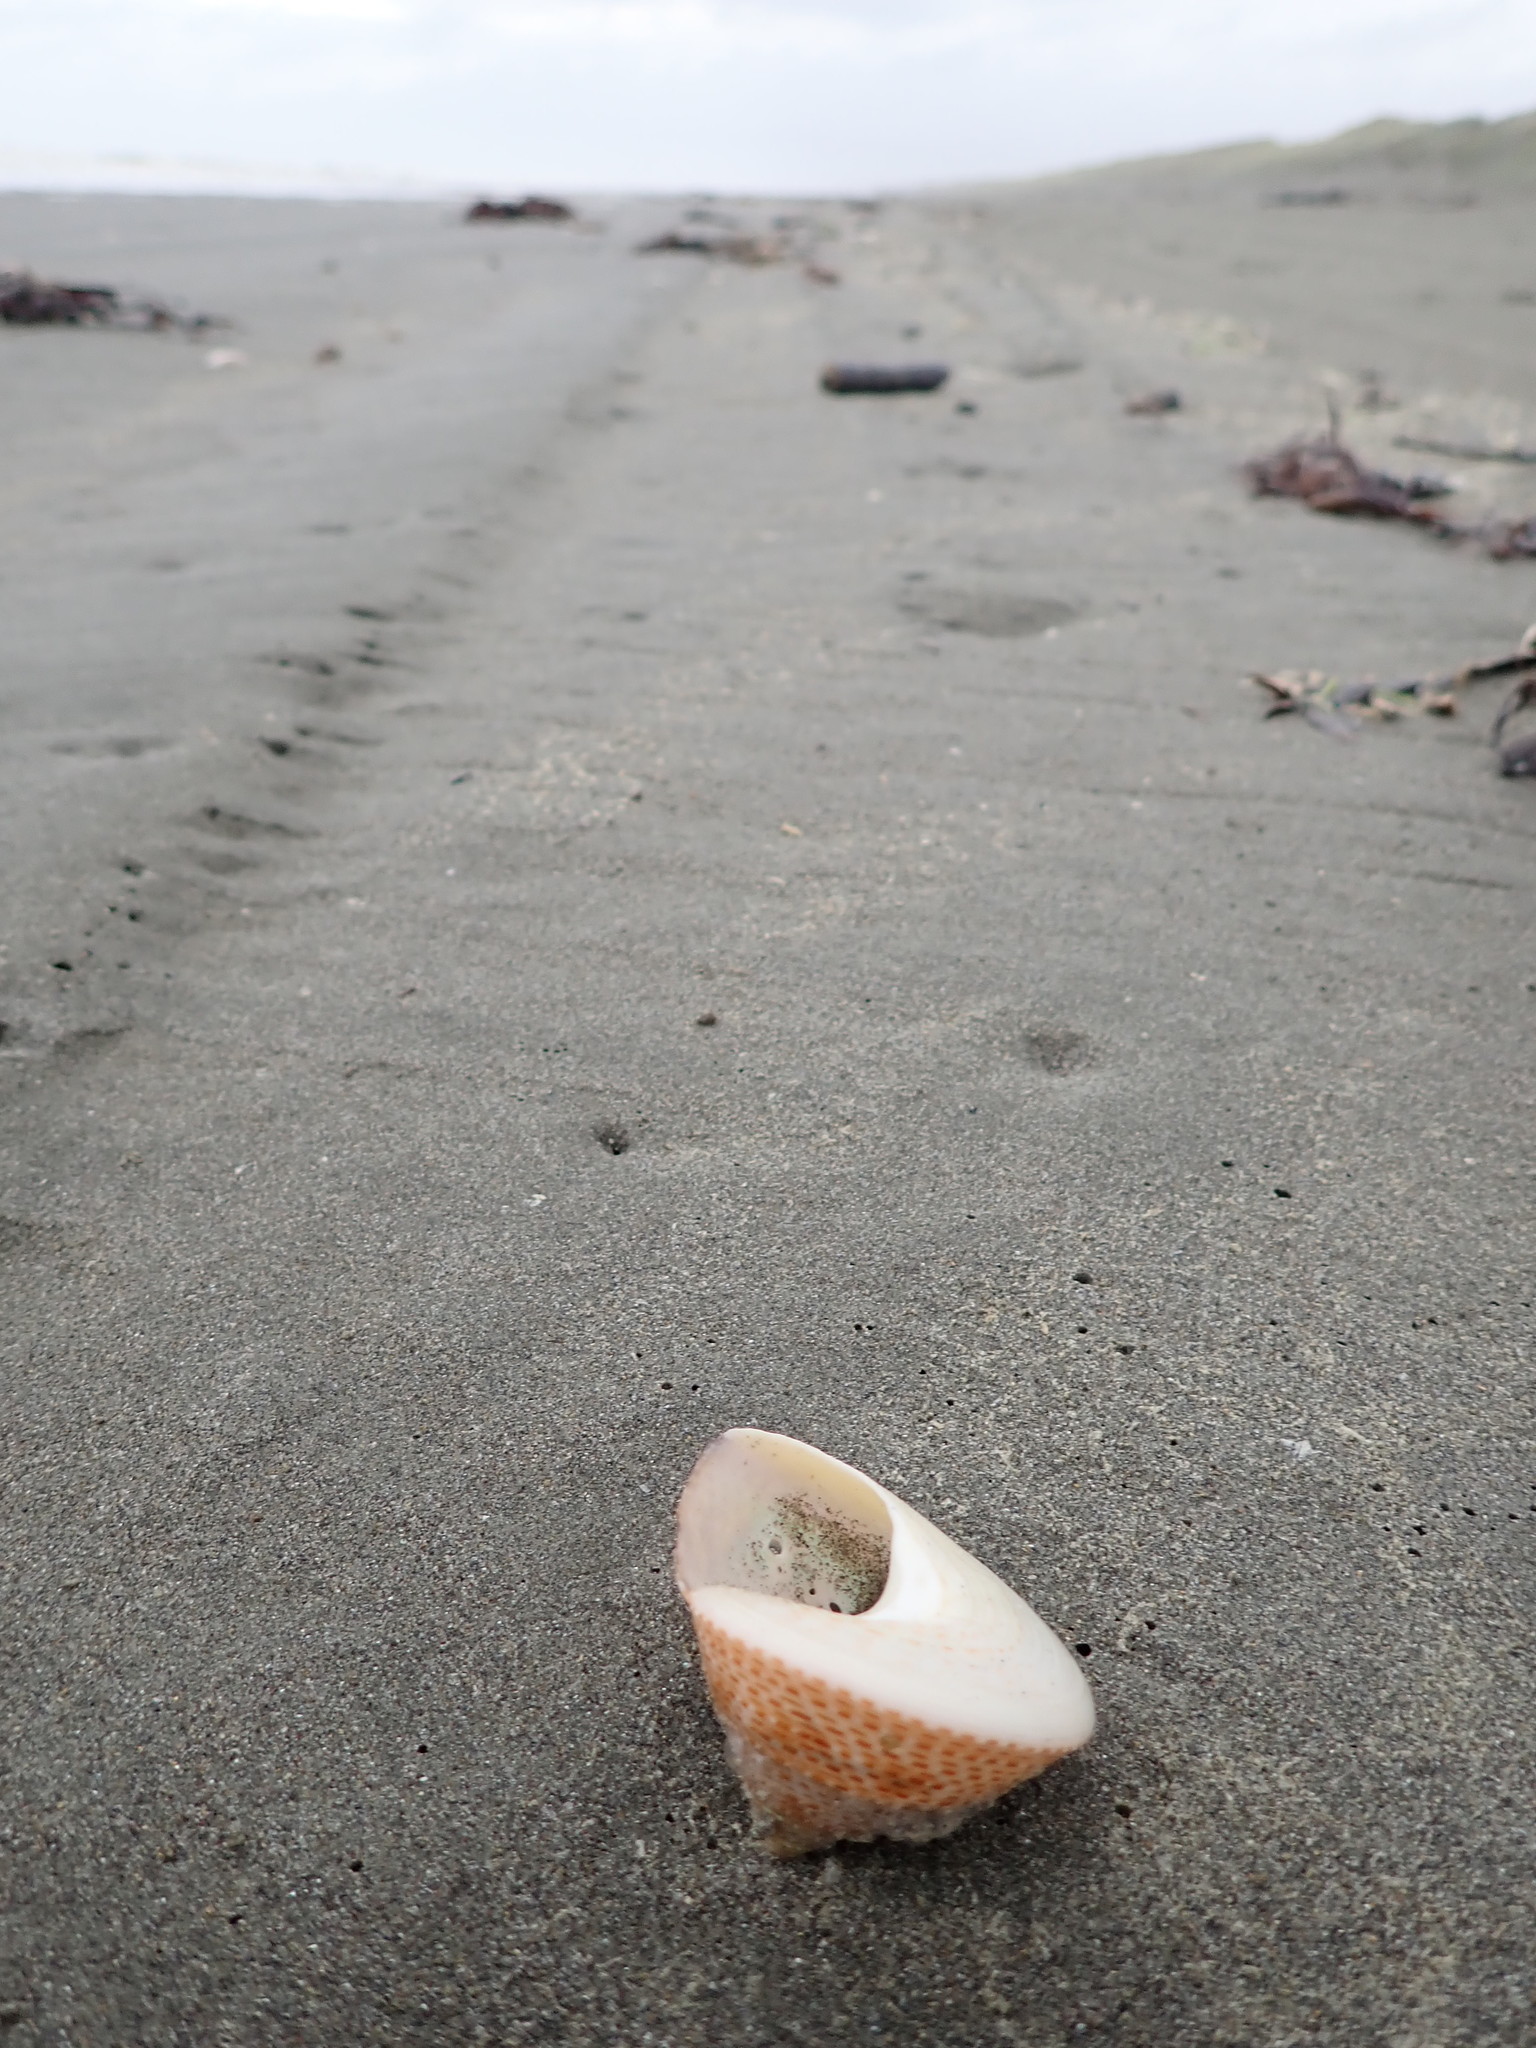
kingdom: Animalia
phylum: Mollusca
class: Gastropoda
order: Trochida
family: Calliostomatidae
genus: Maurea
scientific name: Maurea selecta
